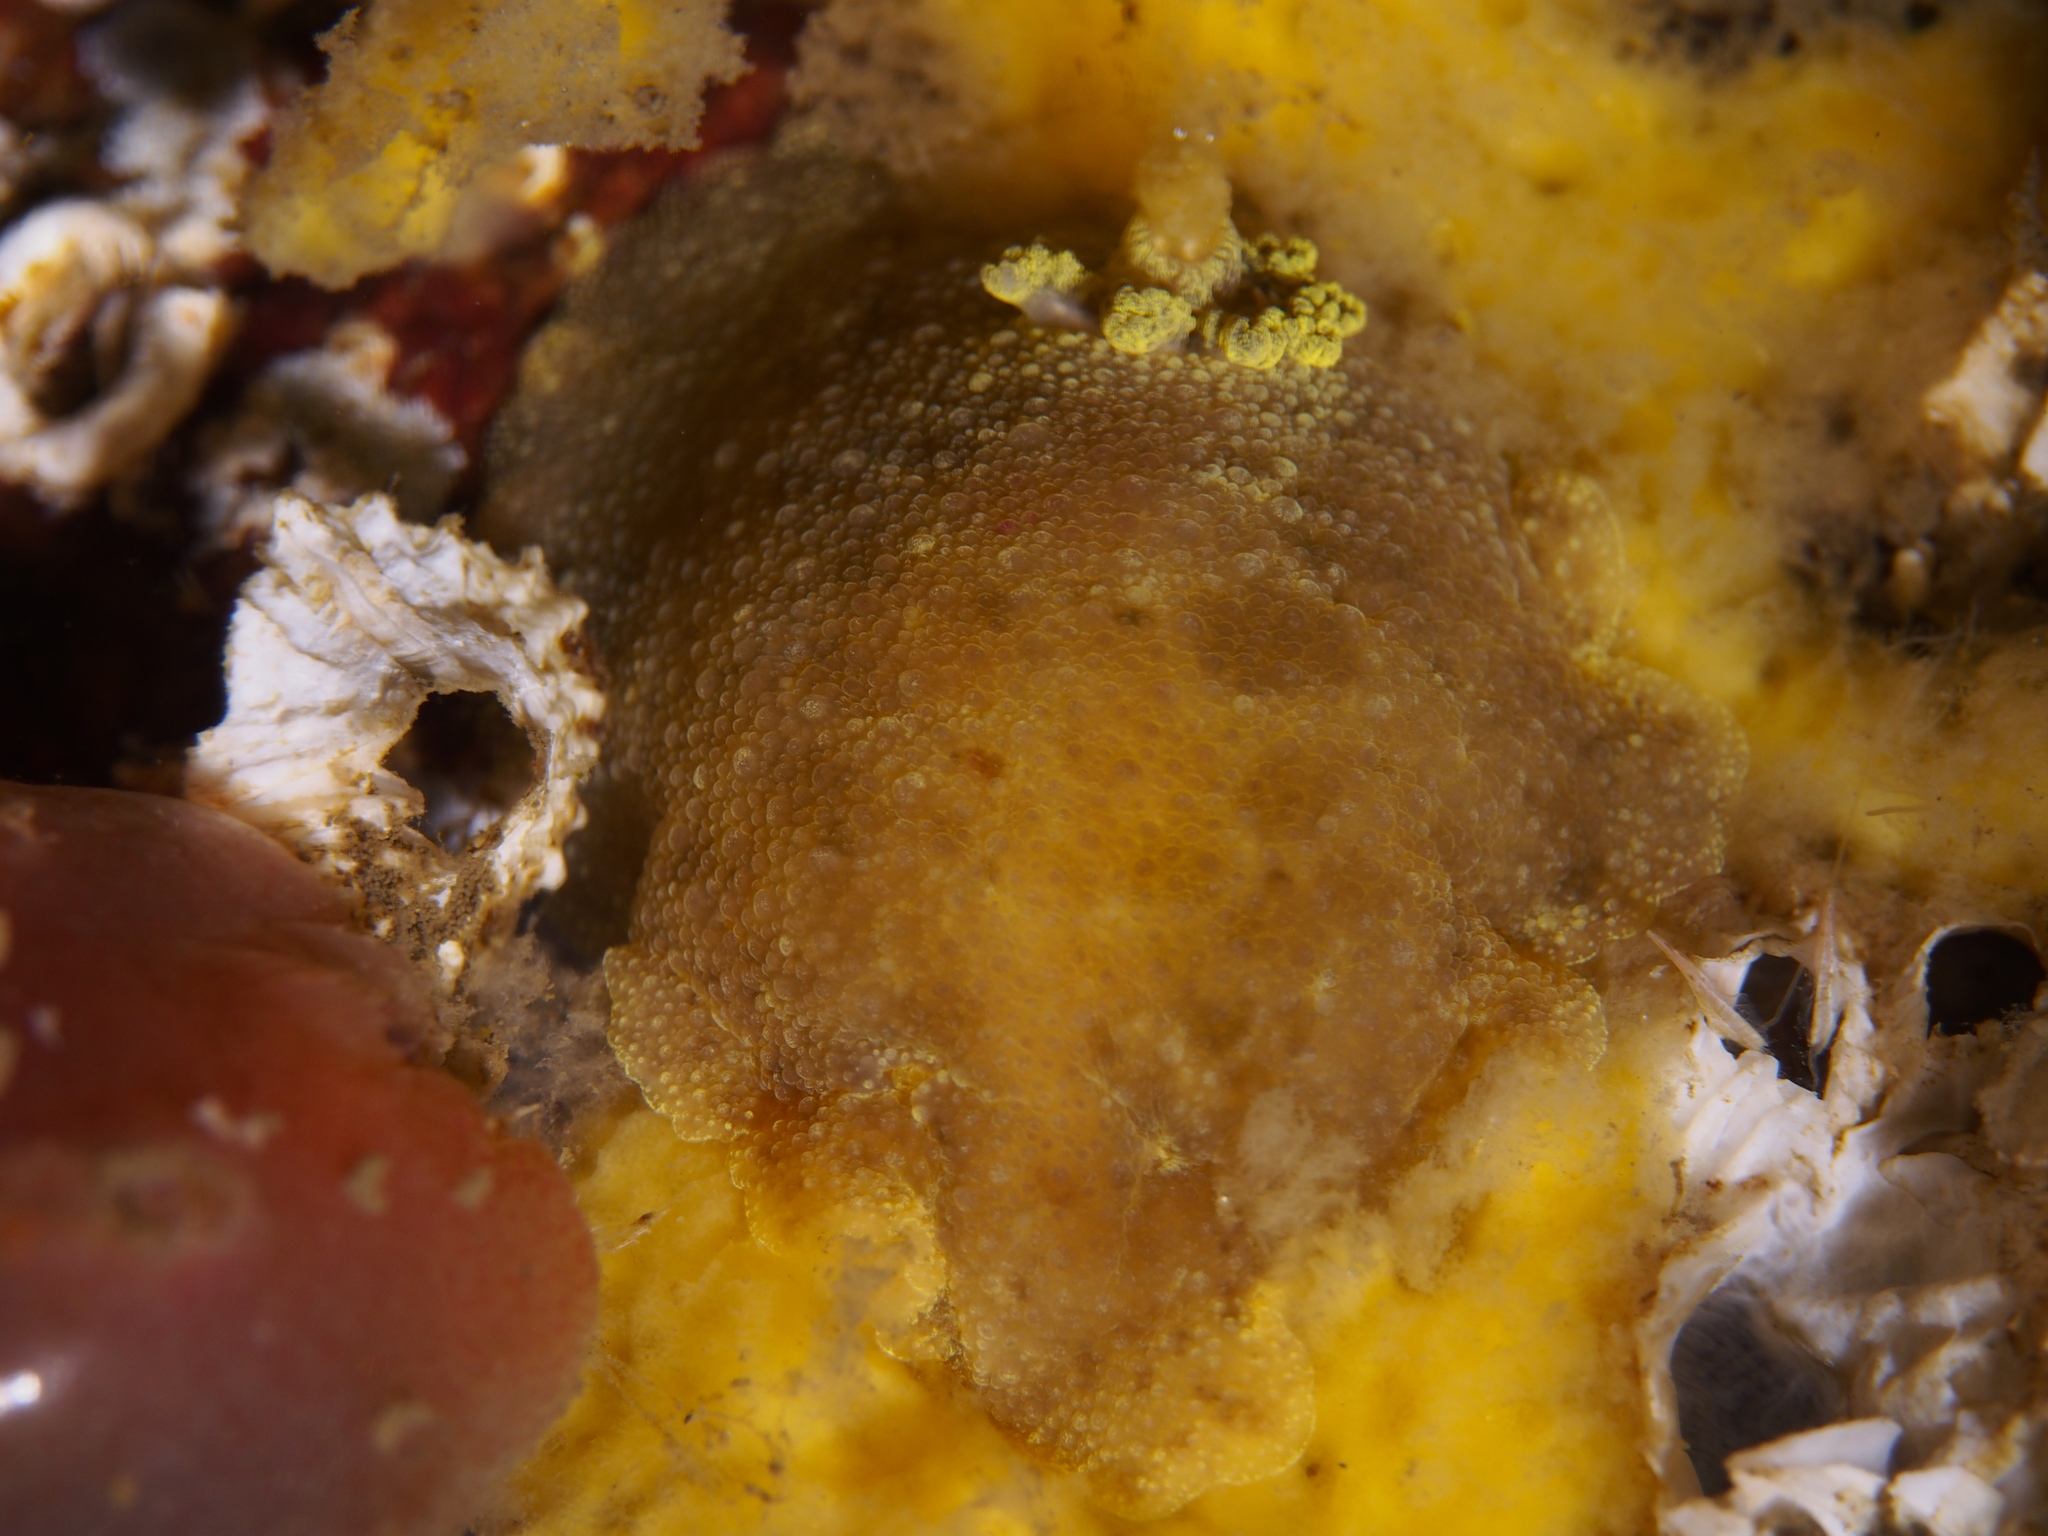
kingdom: Animalia
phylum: Mollusca
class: Gastropoda
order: Nudibranchia
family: Dorididae
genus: Doris
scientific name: Doris pseudoargus
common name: Sea lemon
